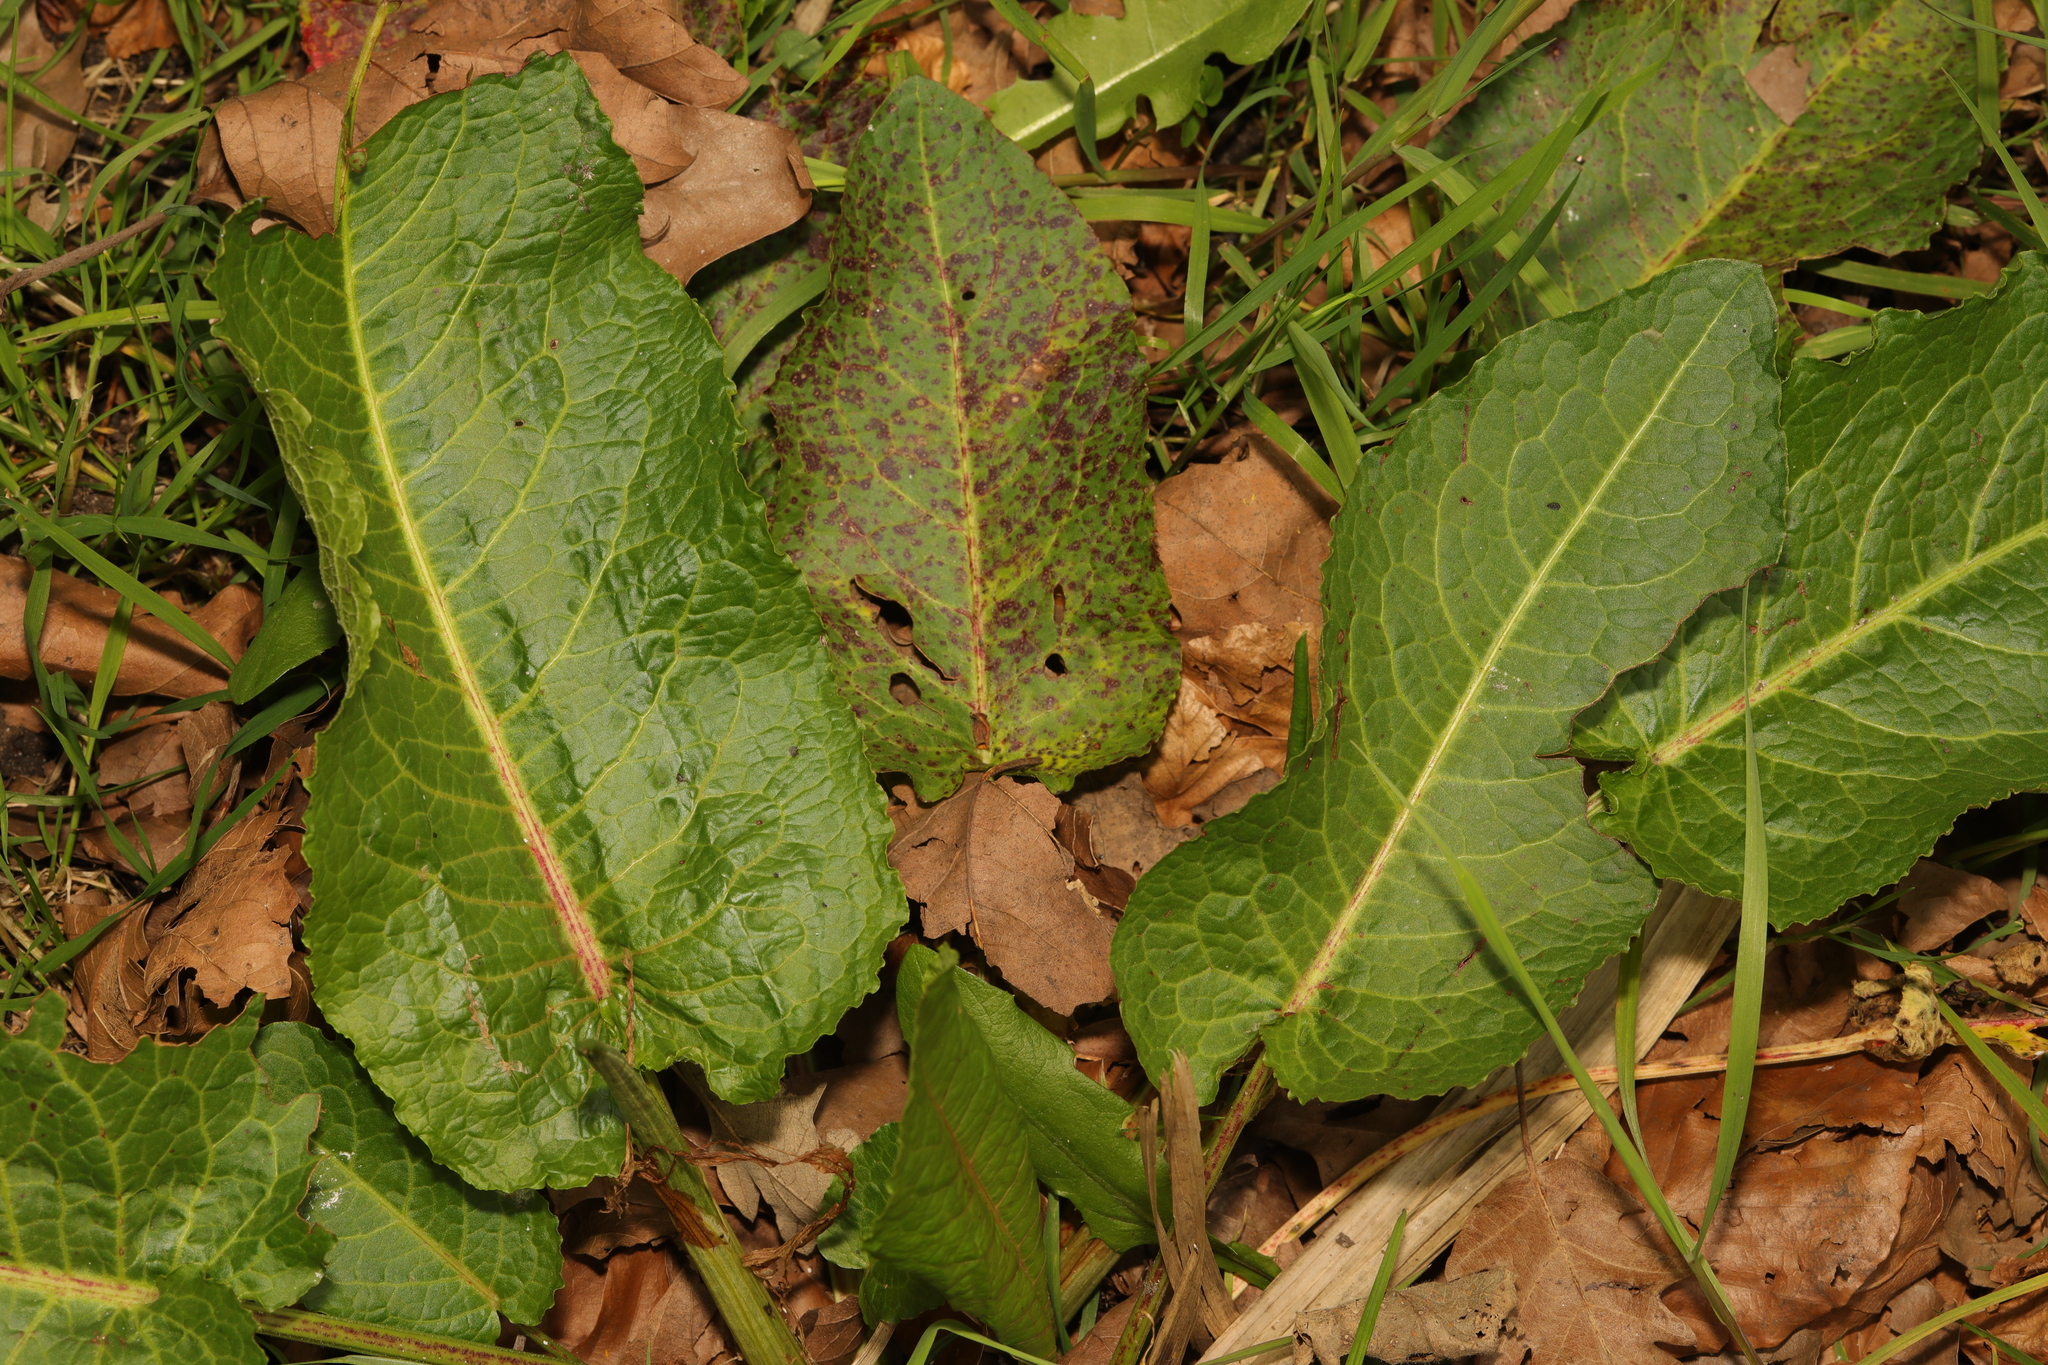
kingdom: Plantae
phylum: Tracheophyta
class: Magnoliopsida
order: Caryophyllales
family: Polygonaceae
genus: Rumex
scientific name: Rumex obtusifolius
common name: Bitter dock
